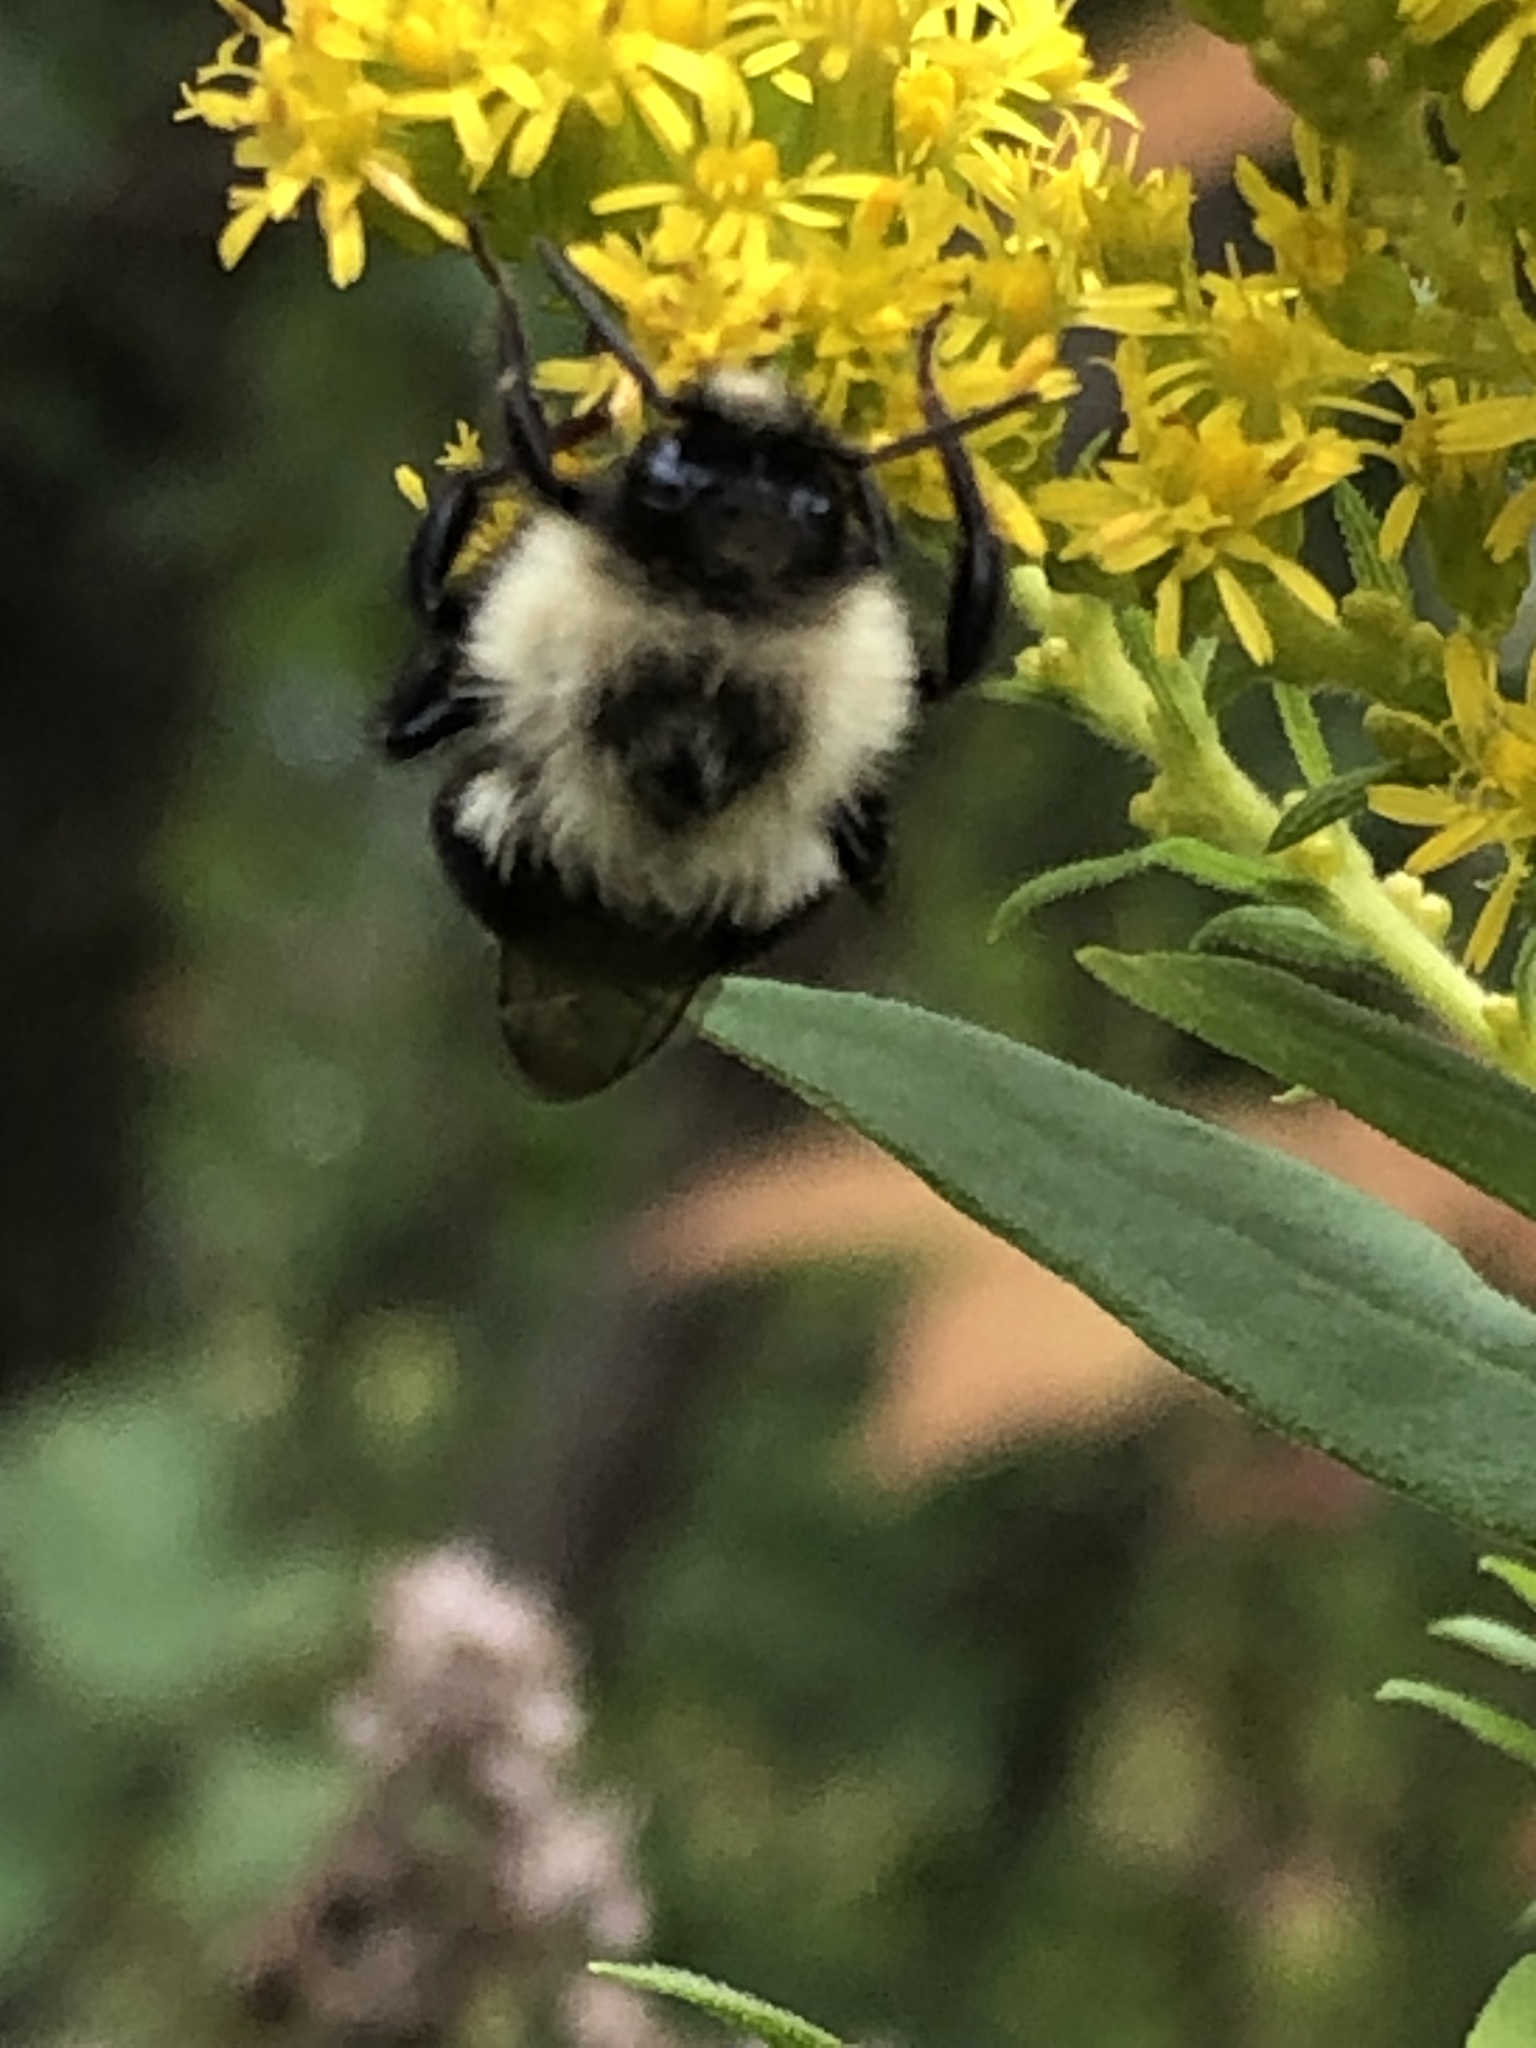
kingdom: Animalia
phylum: Arthropoda
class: Insecta
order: Hymenoptera
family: Apidae
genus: Bombus
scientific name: Bombus impatiens
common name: Common eastern bumble bee
